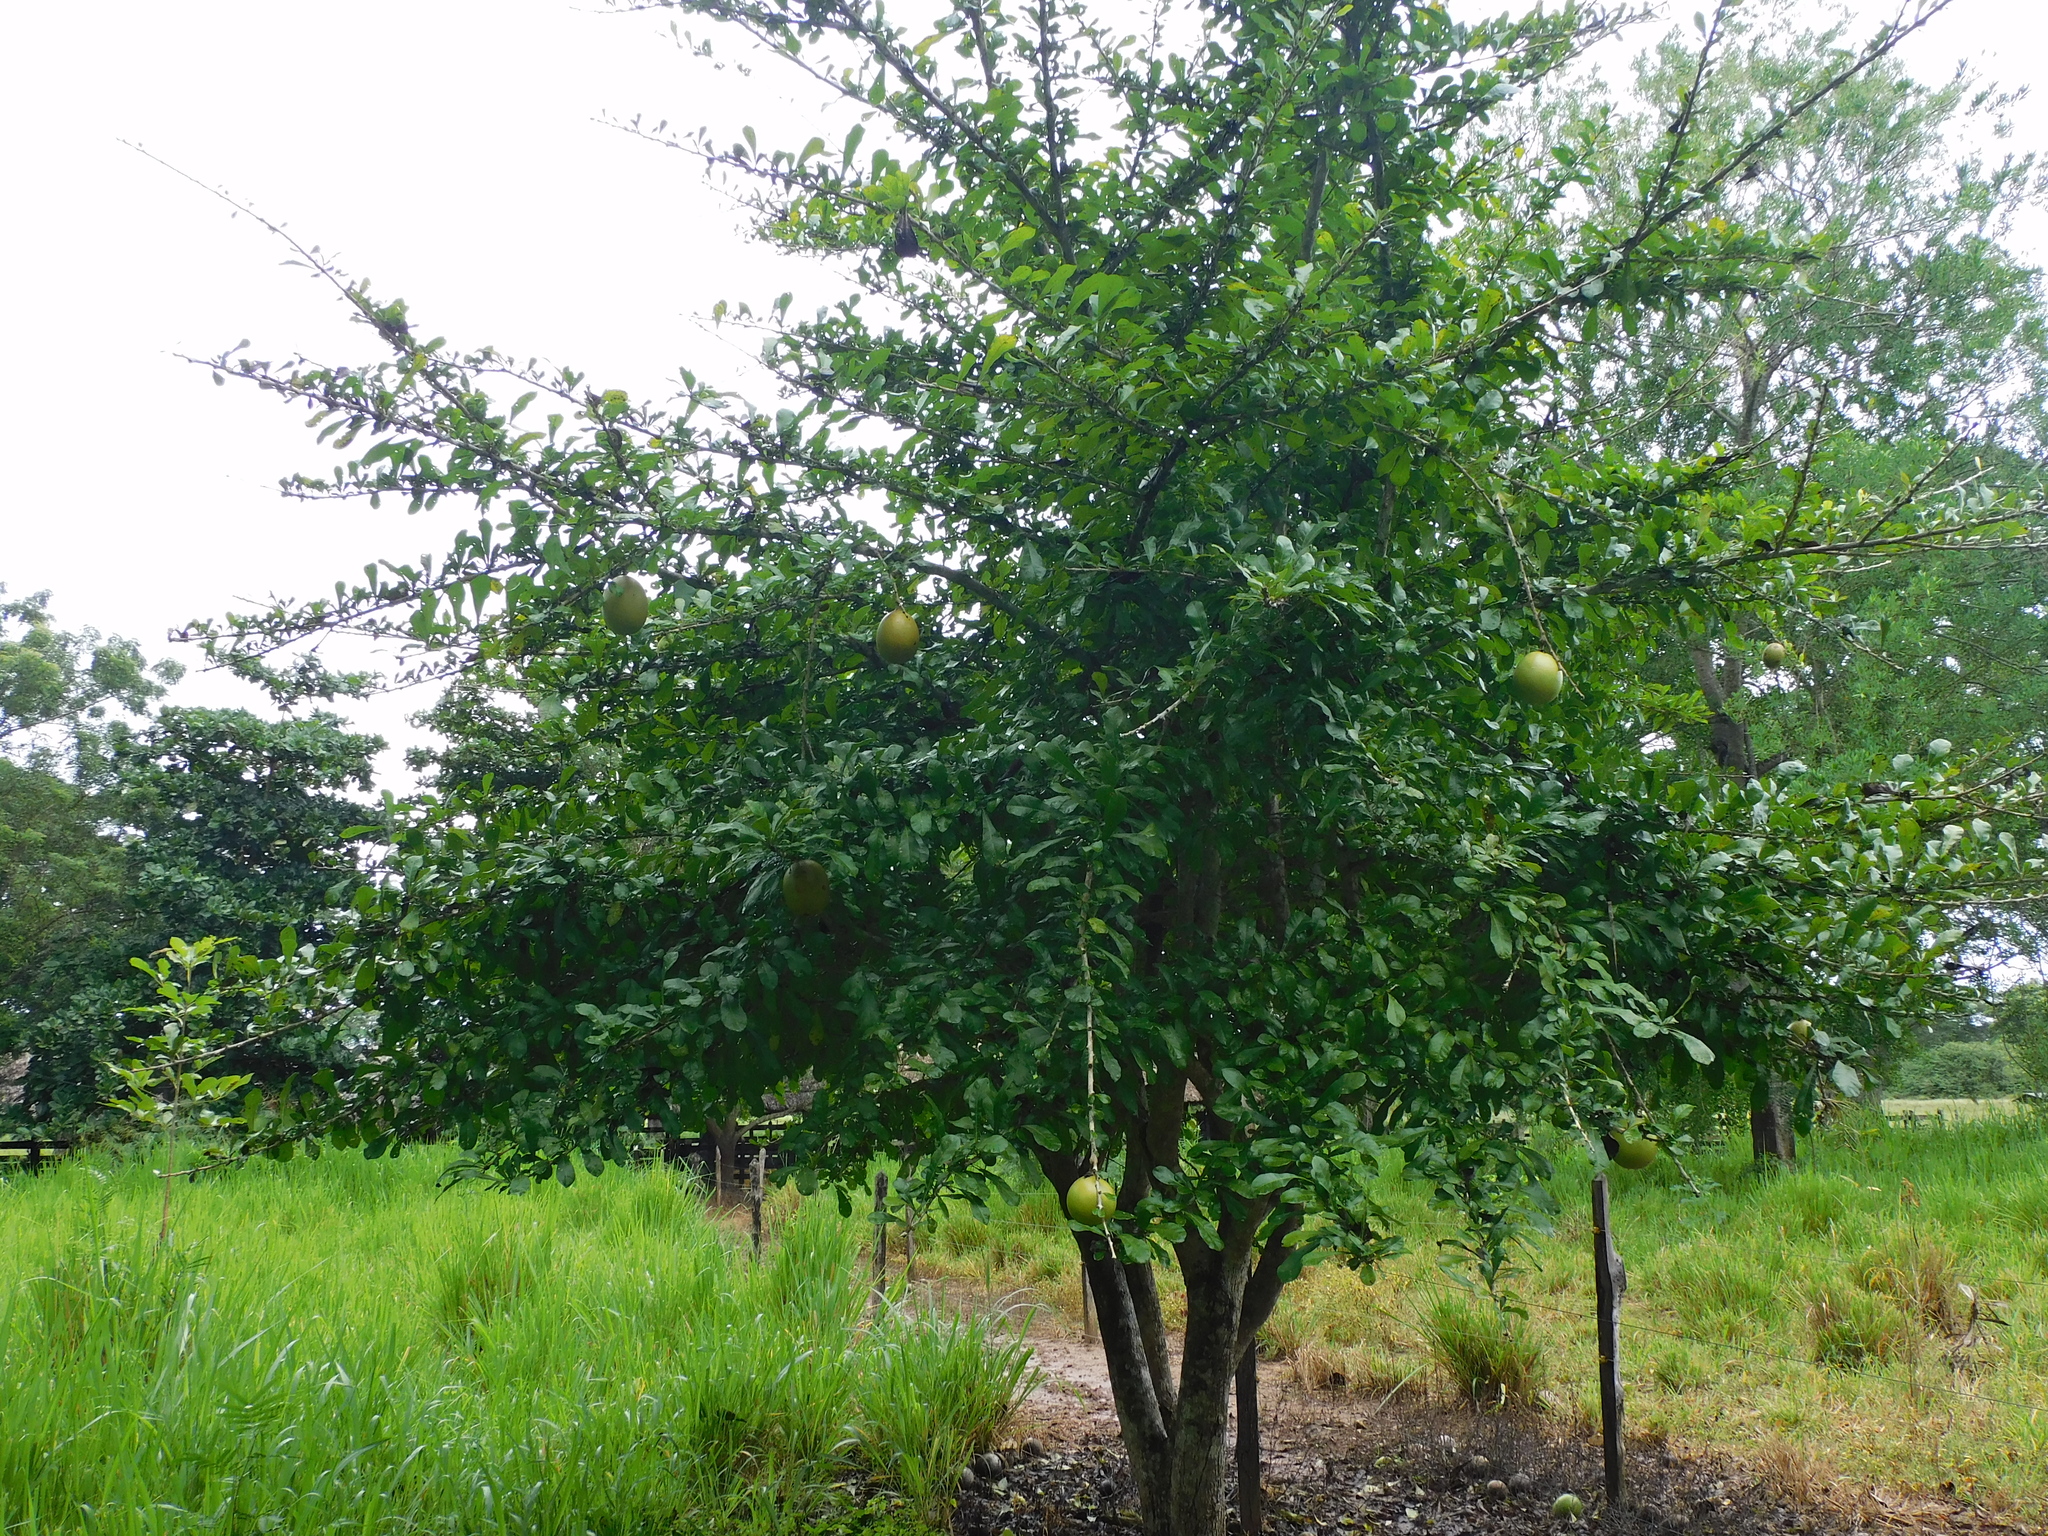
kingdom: Plantae
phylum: Tracheophyta
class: Magnoliopsida
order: Lamiales
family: Bignoniaceae
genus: Crescentia
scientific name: Crescentia cujete
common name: Calabash
